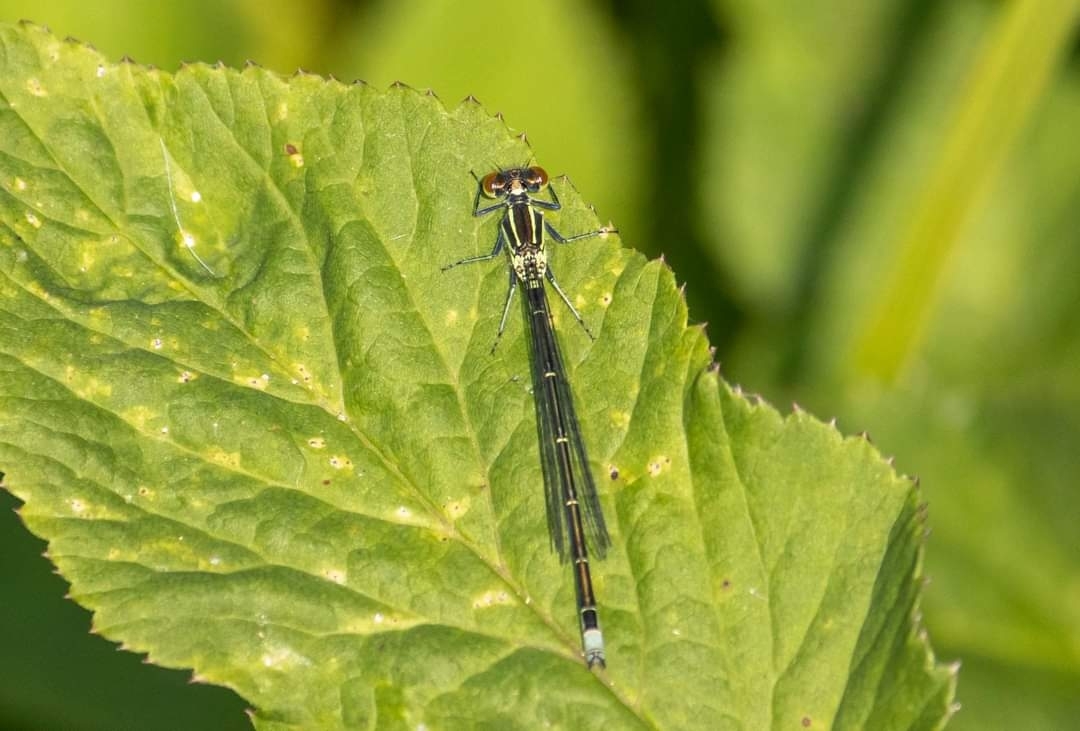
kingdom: Animalia
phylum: Arthropoda
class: Insecta
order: Odonata
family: Coenagrionidae
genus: Erythromma
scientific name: Erythromma viridulum
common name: Small red-eyed damselfly
